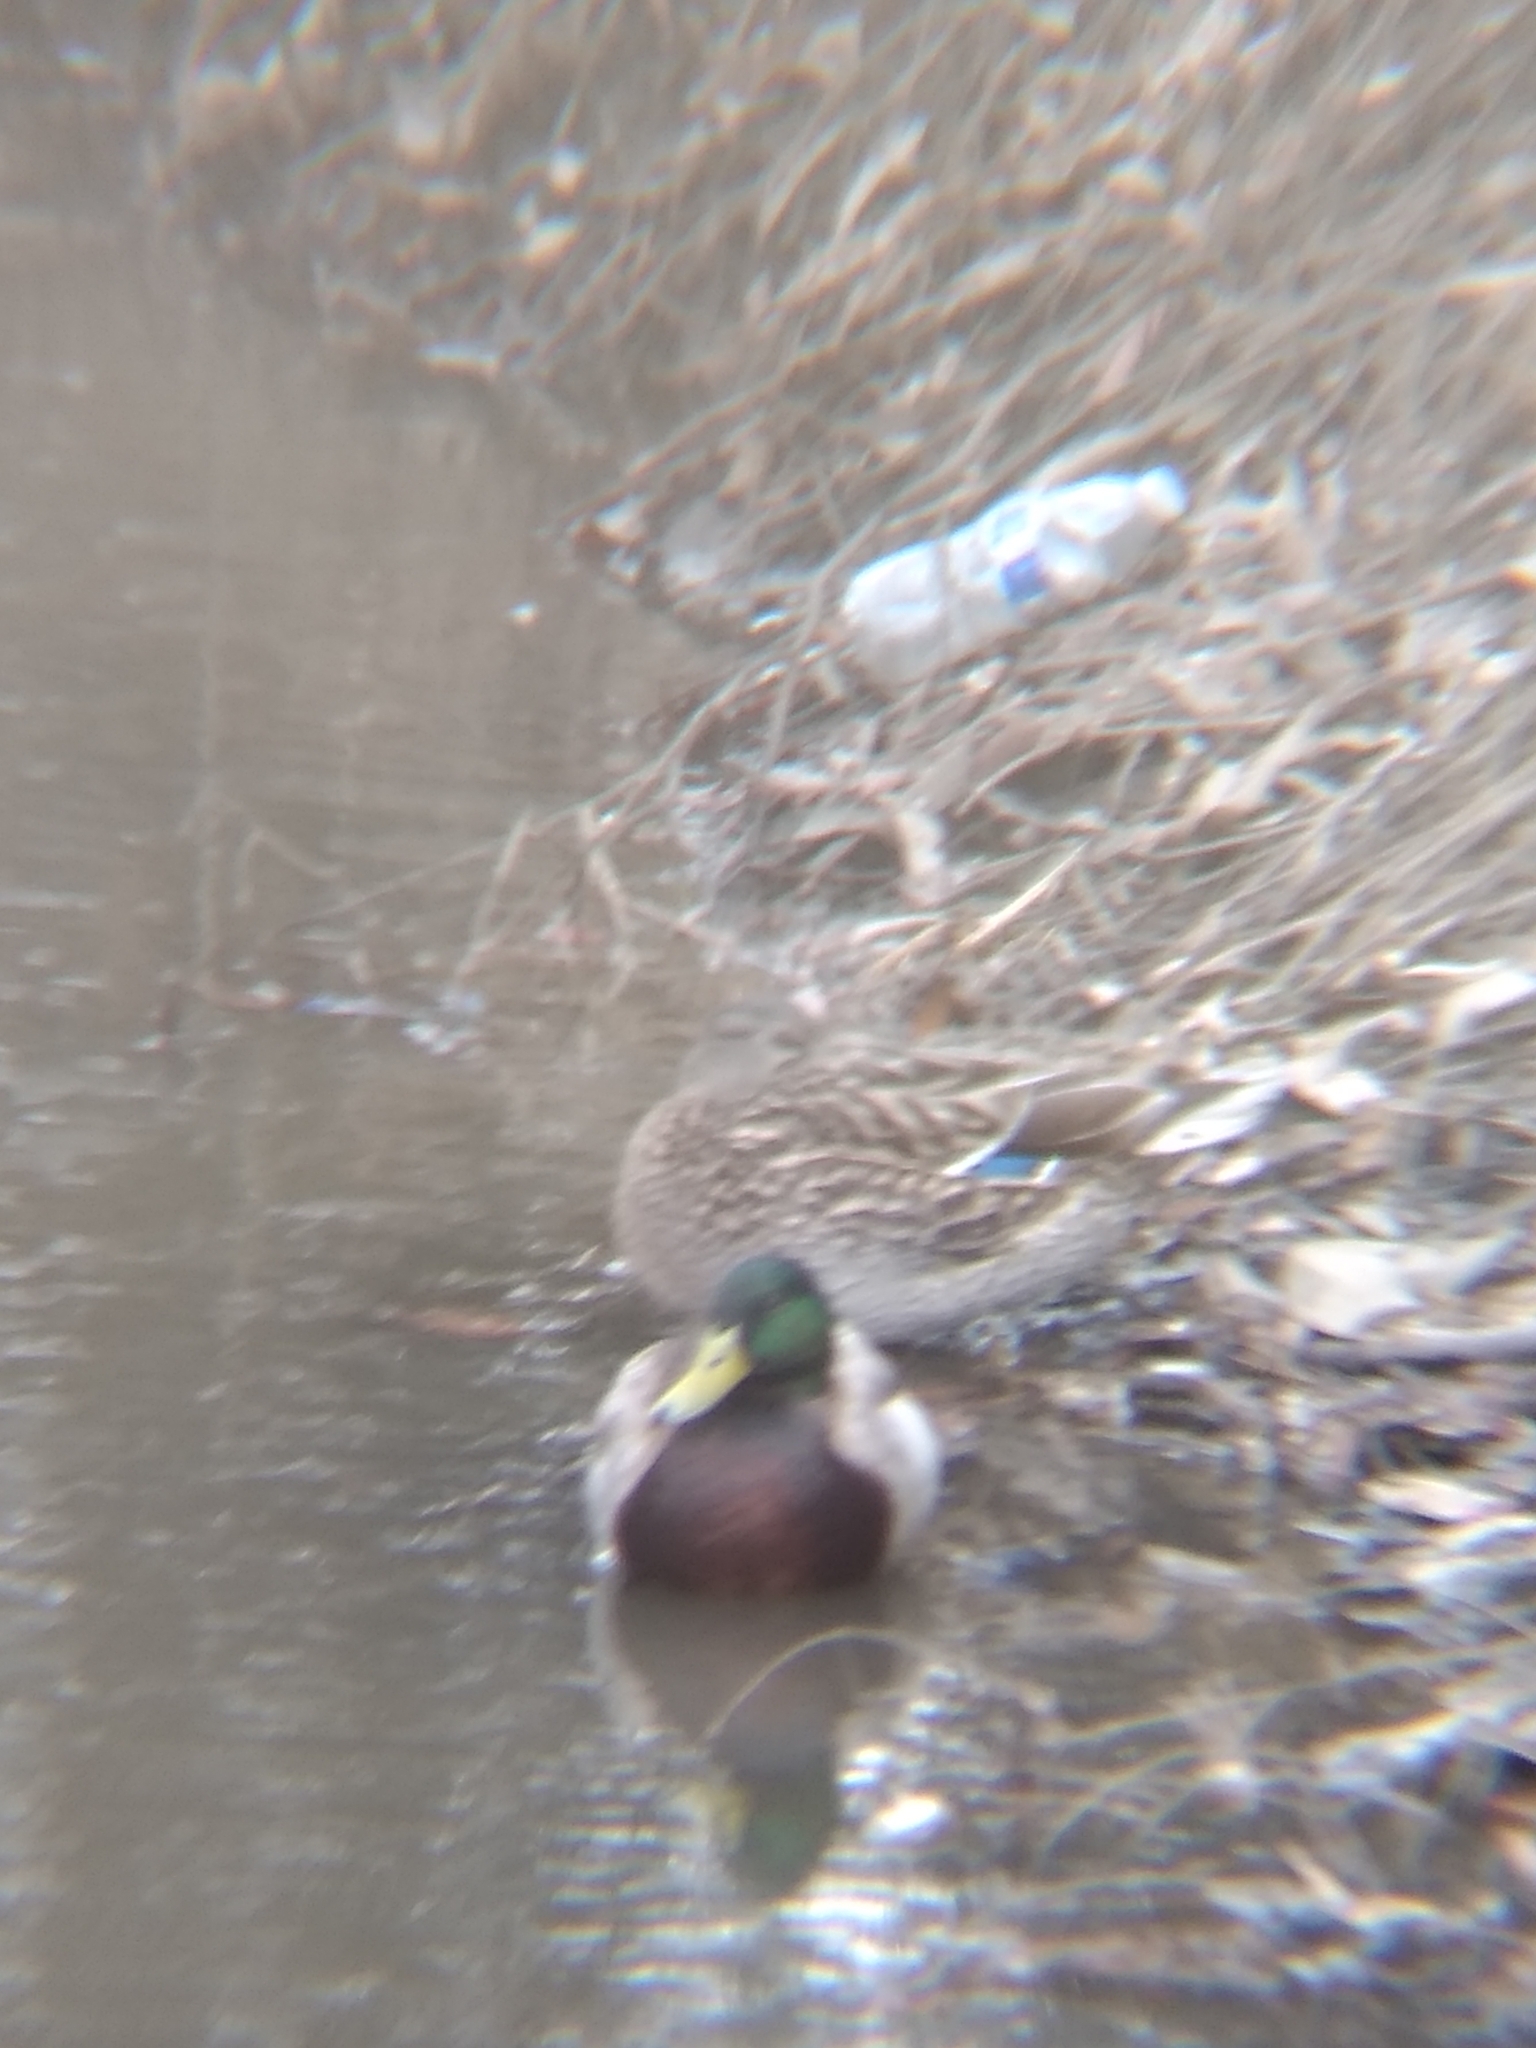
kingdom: Animalia
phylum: Chordata
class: Aves
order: Anseriformes
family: Anatidae
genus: Anas
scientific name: Anas platyrhynchos
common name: Mallard
